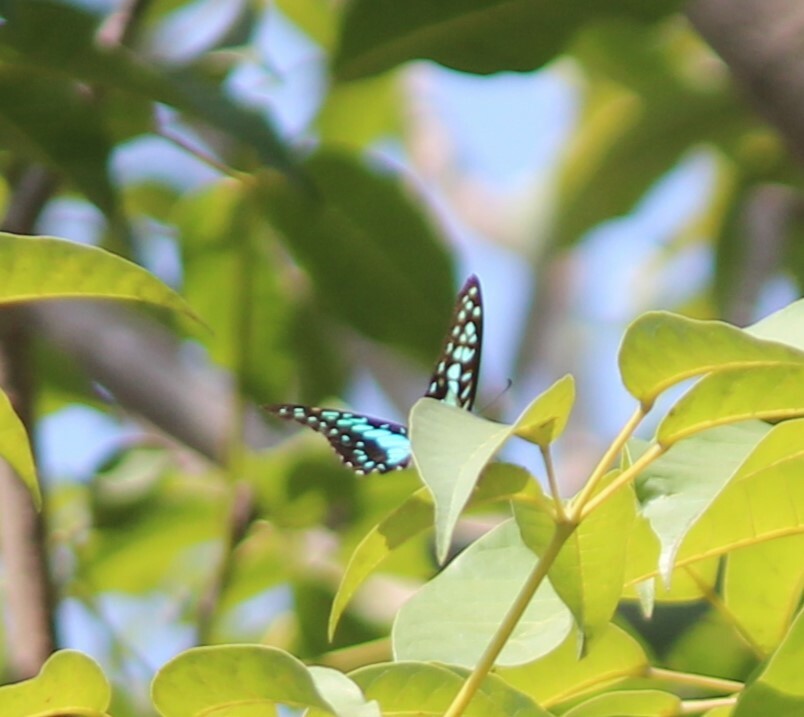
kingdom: Animalia
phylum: Arthropoda
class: Insecta
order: Lepidoptera
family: Papilionidae
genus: Graphium
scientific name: Graphium doson
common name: Common jay
